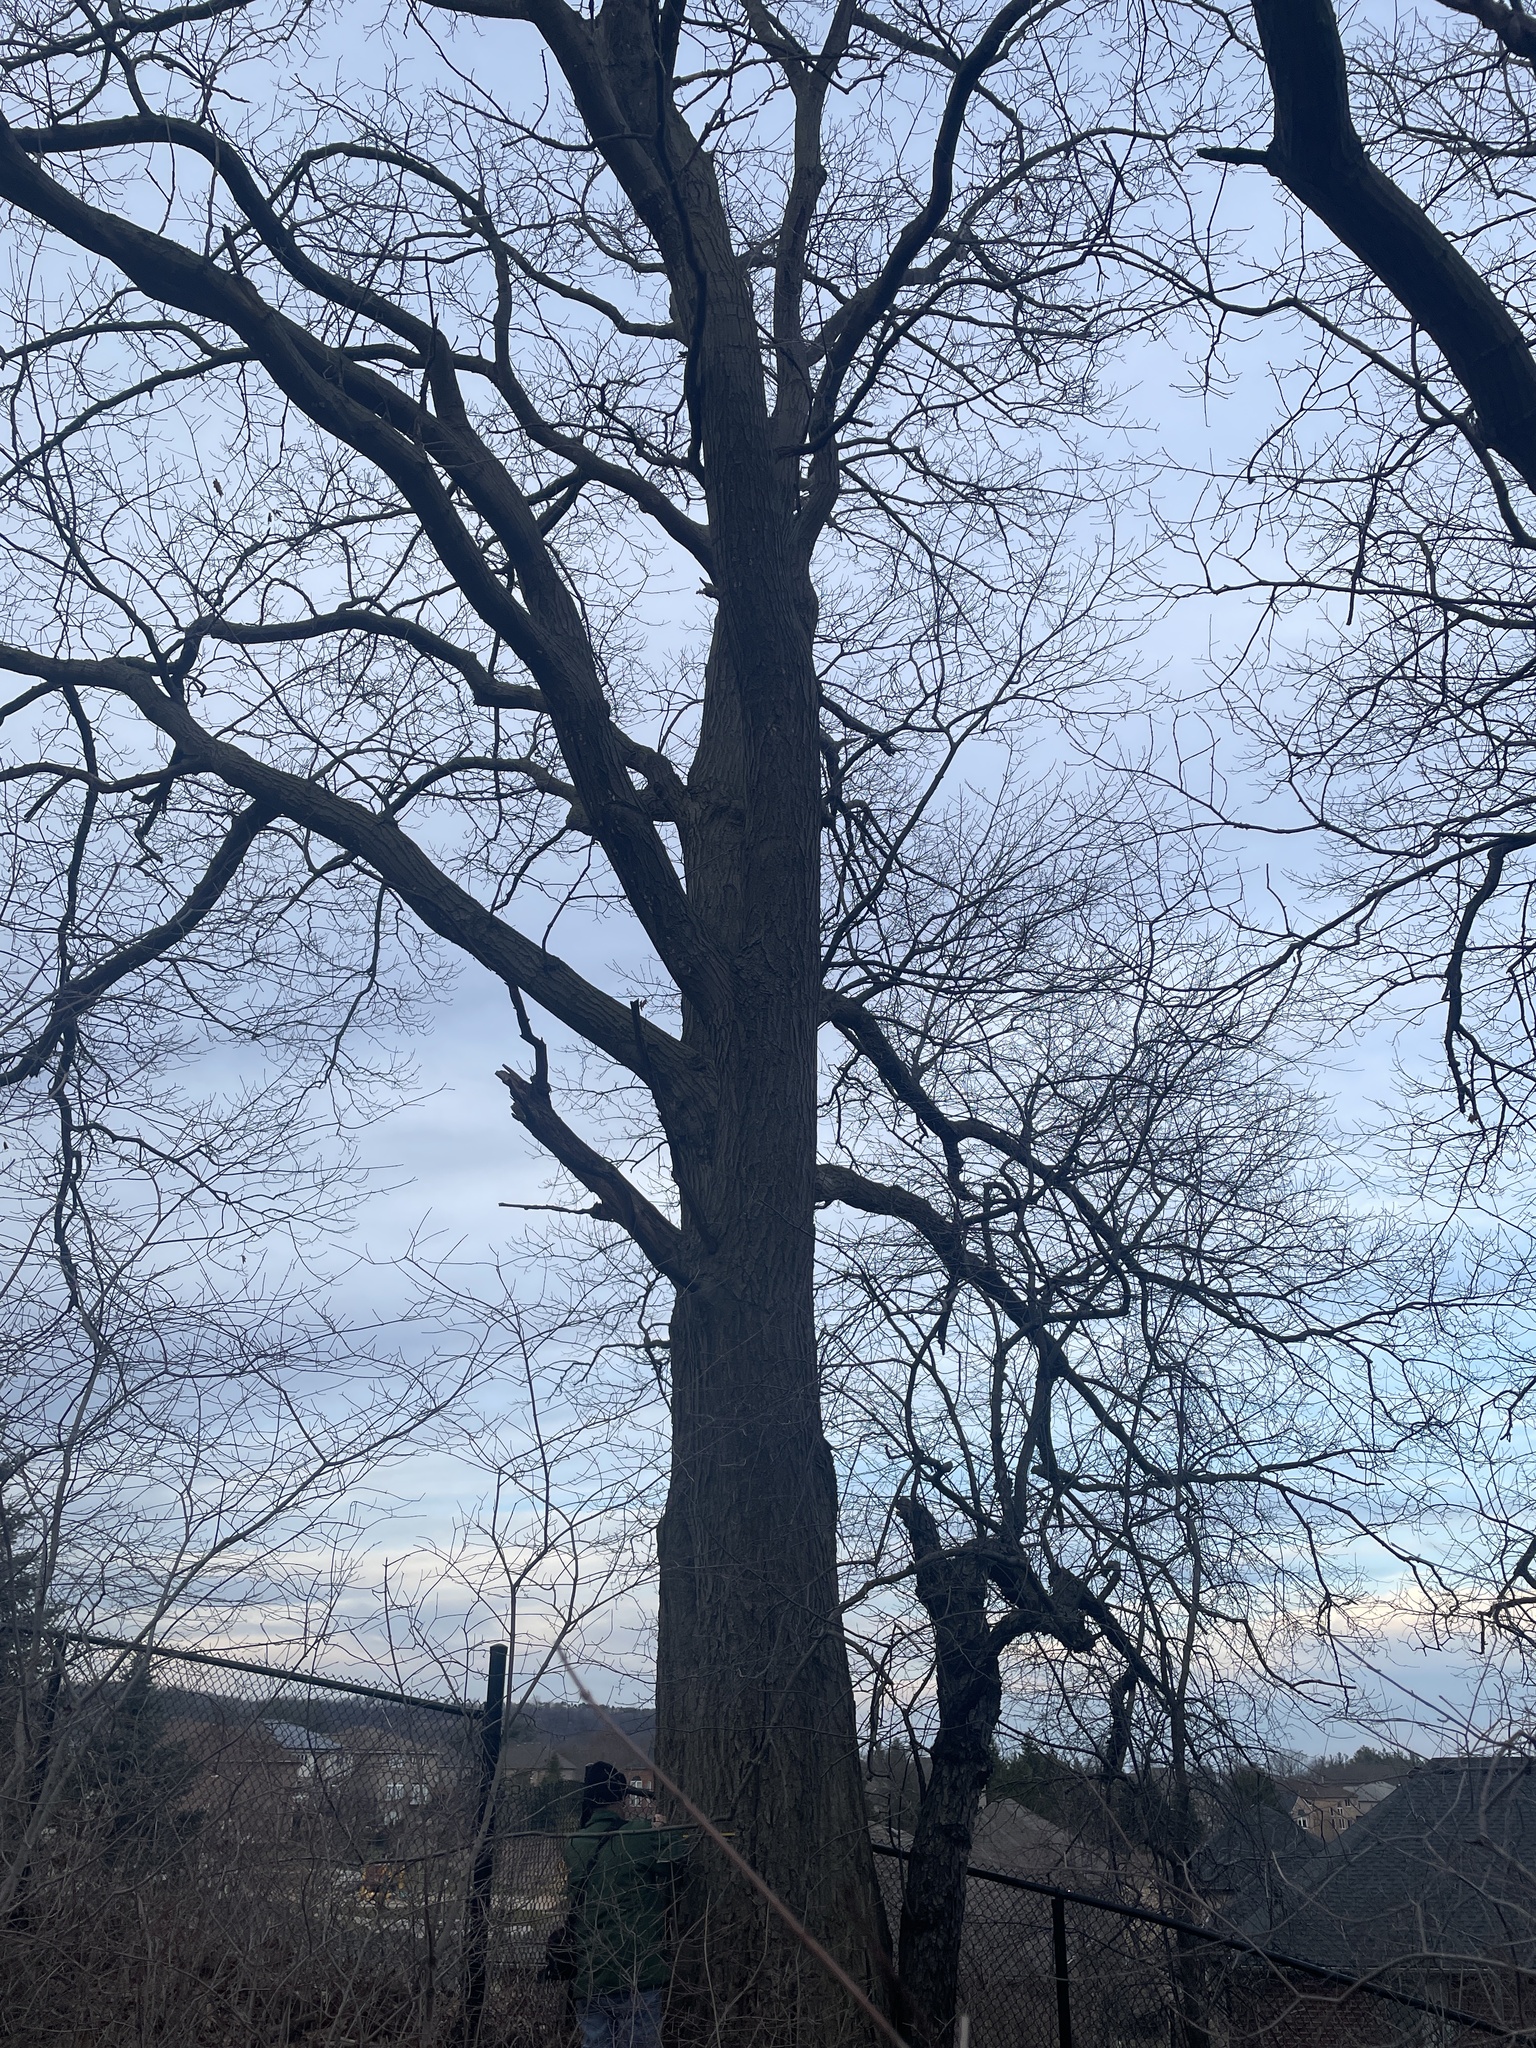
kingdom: Plantae
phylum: Tracheophyta
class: Magnoliopsida
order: Fagales
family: Fagaceae
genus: Quercus
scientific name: Quercus rubra
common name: Red oak
